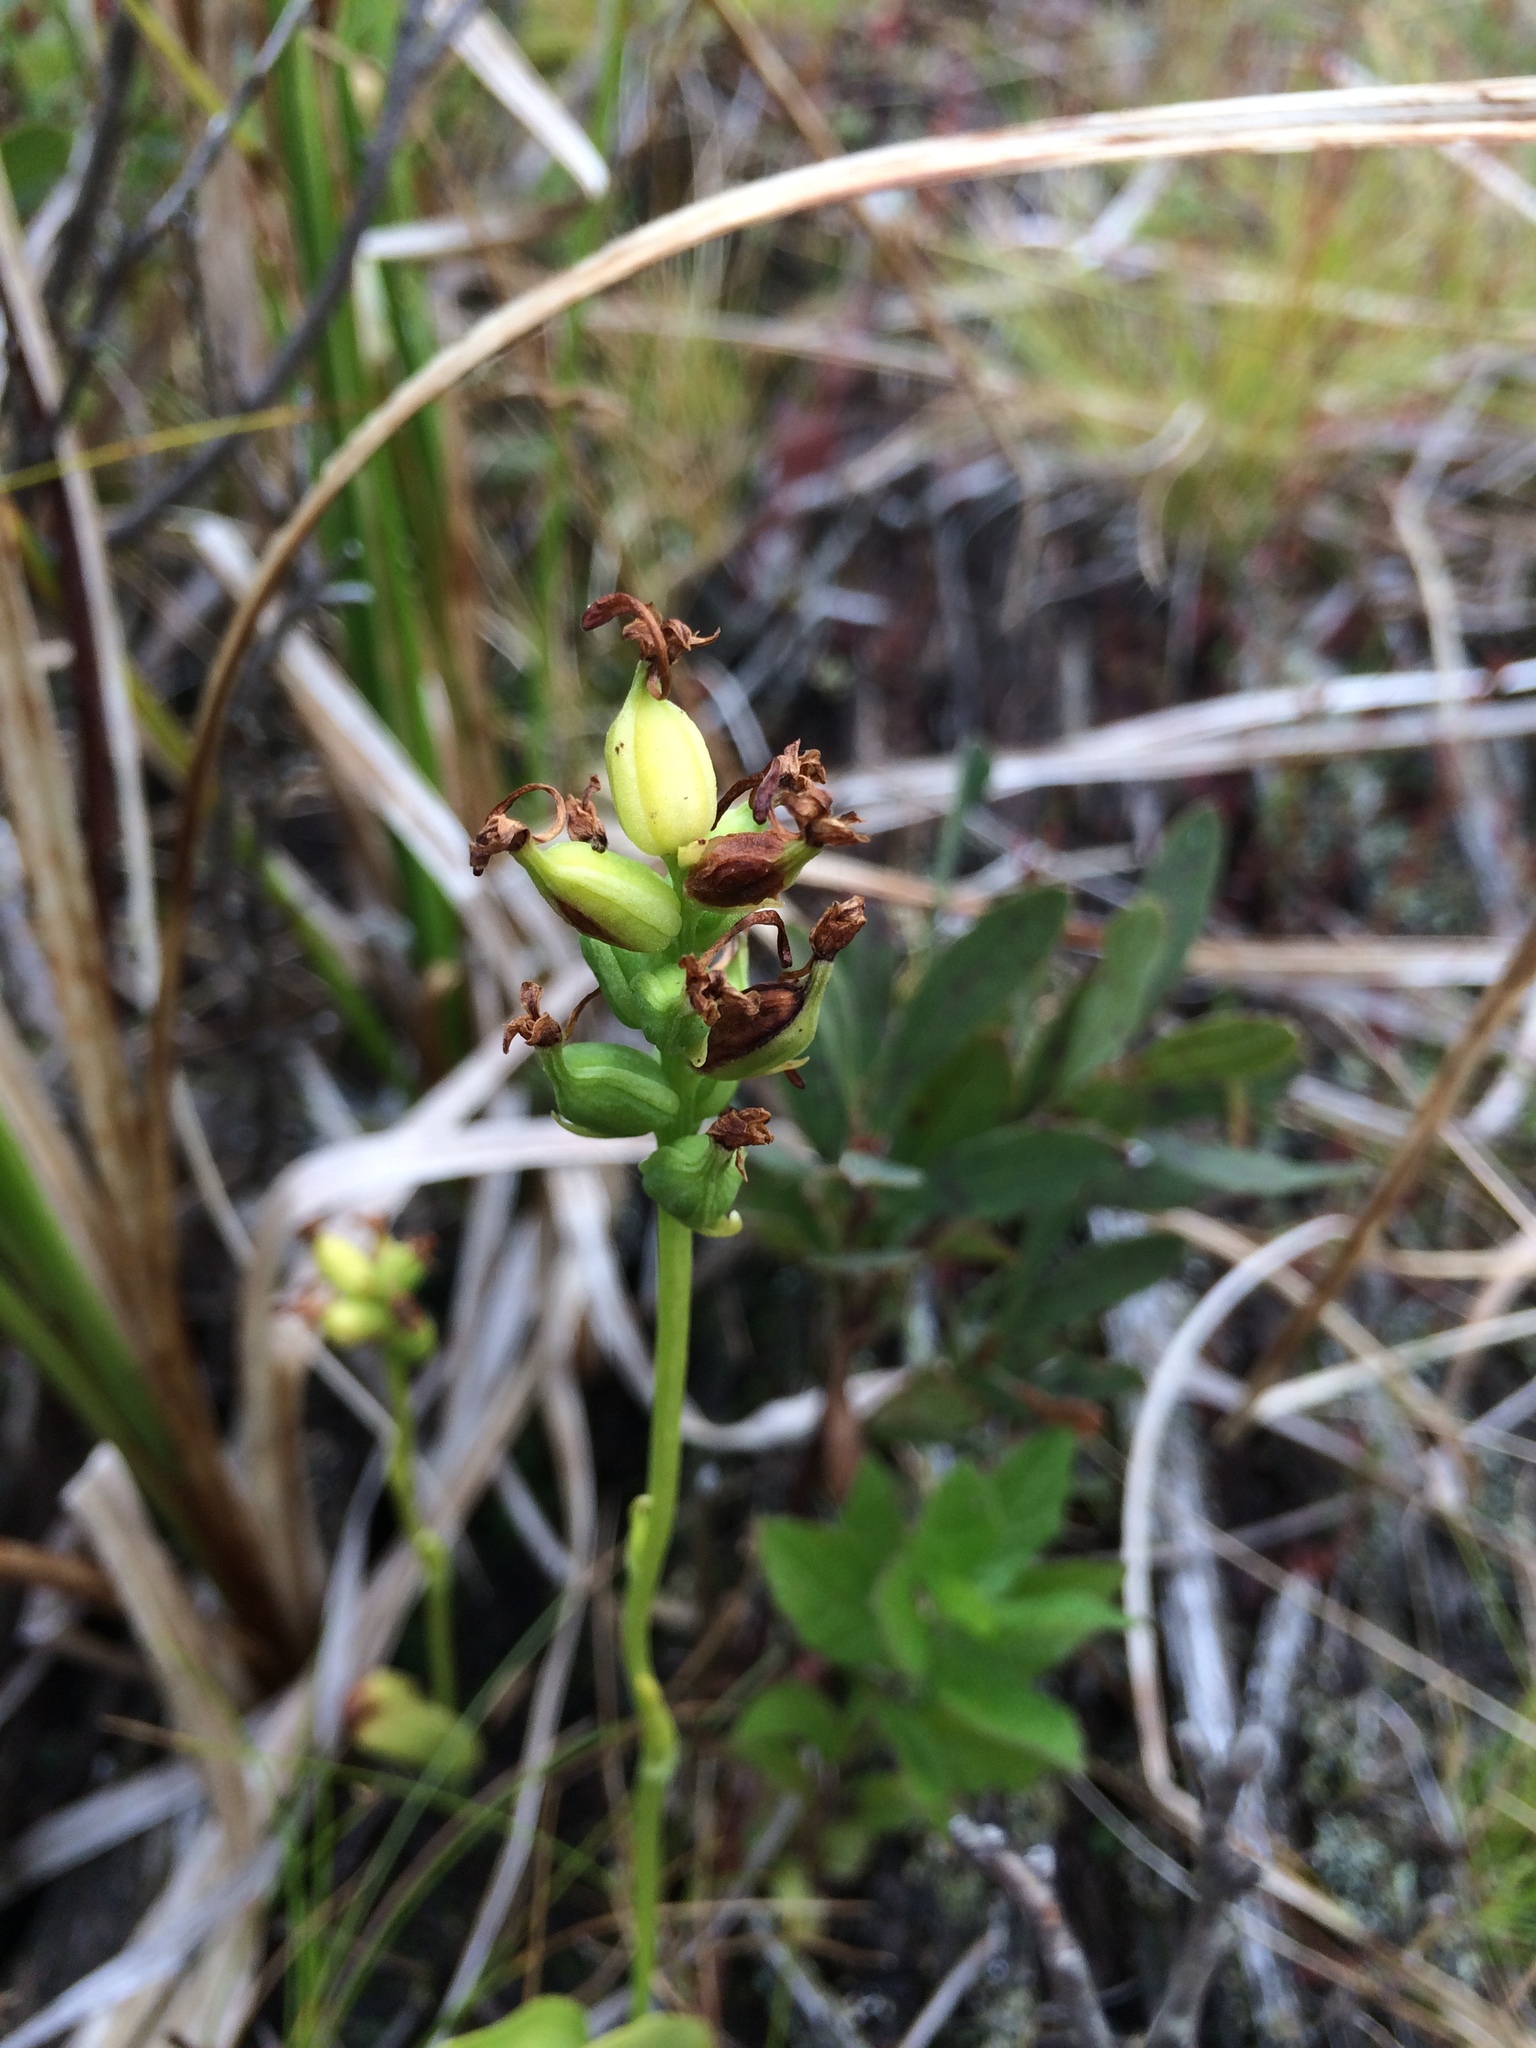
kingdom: Plantae
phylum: Tracheophyta
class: Liliopsida
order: Asparagales
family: Orchidaceae
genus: Platanthera
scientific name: Platanthera clavellata
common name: Club-spur orchid
